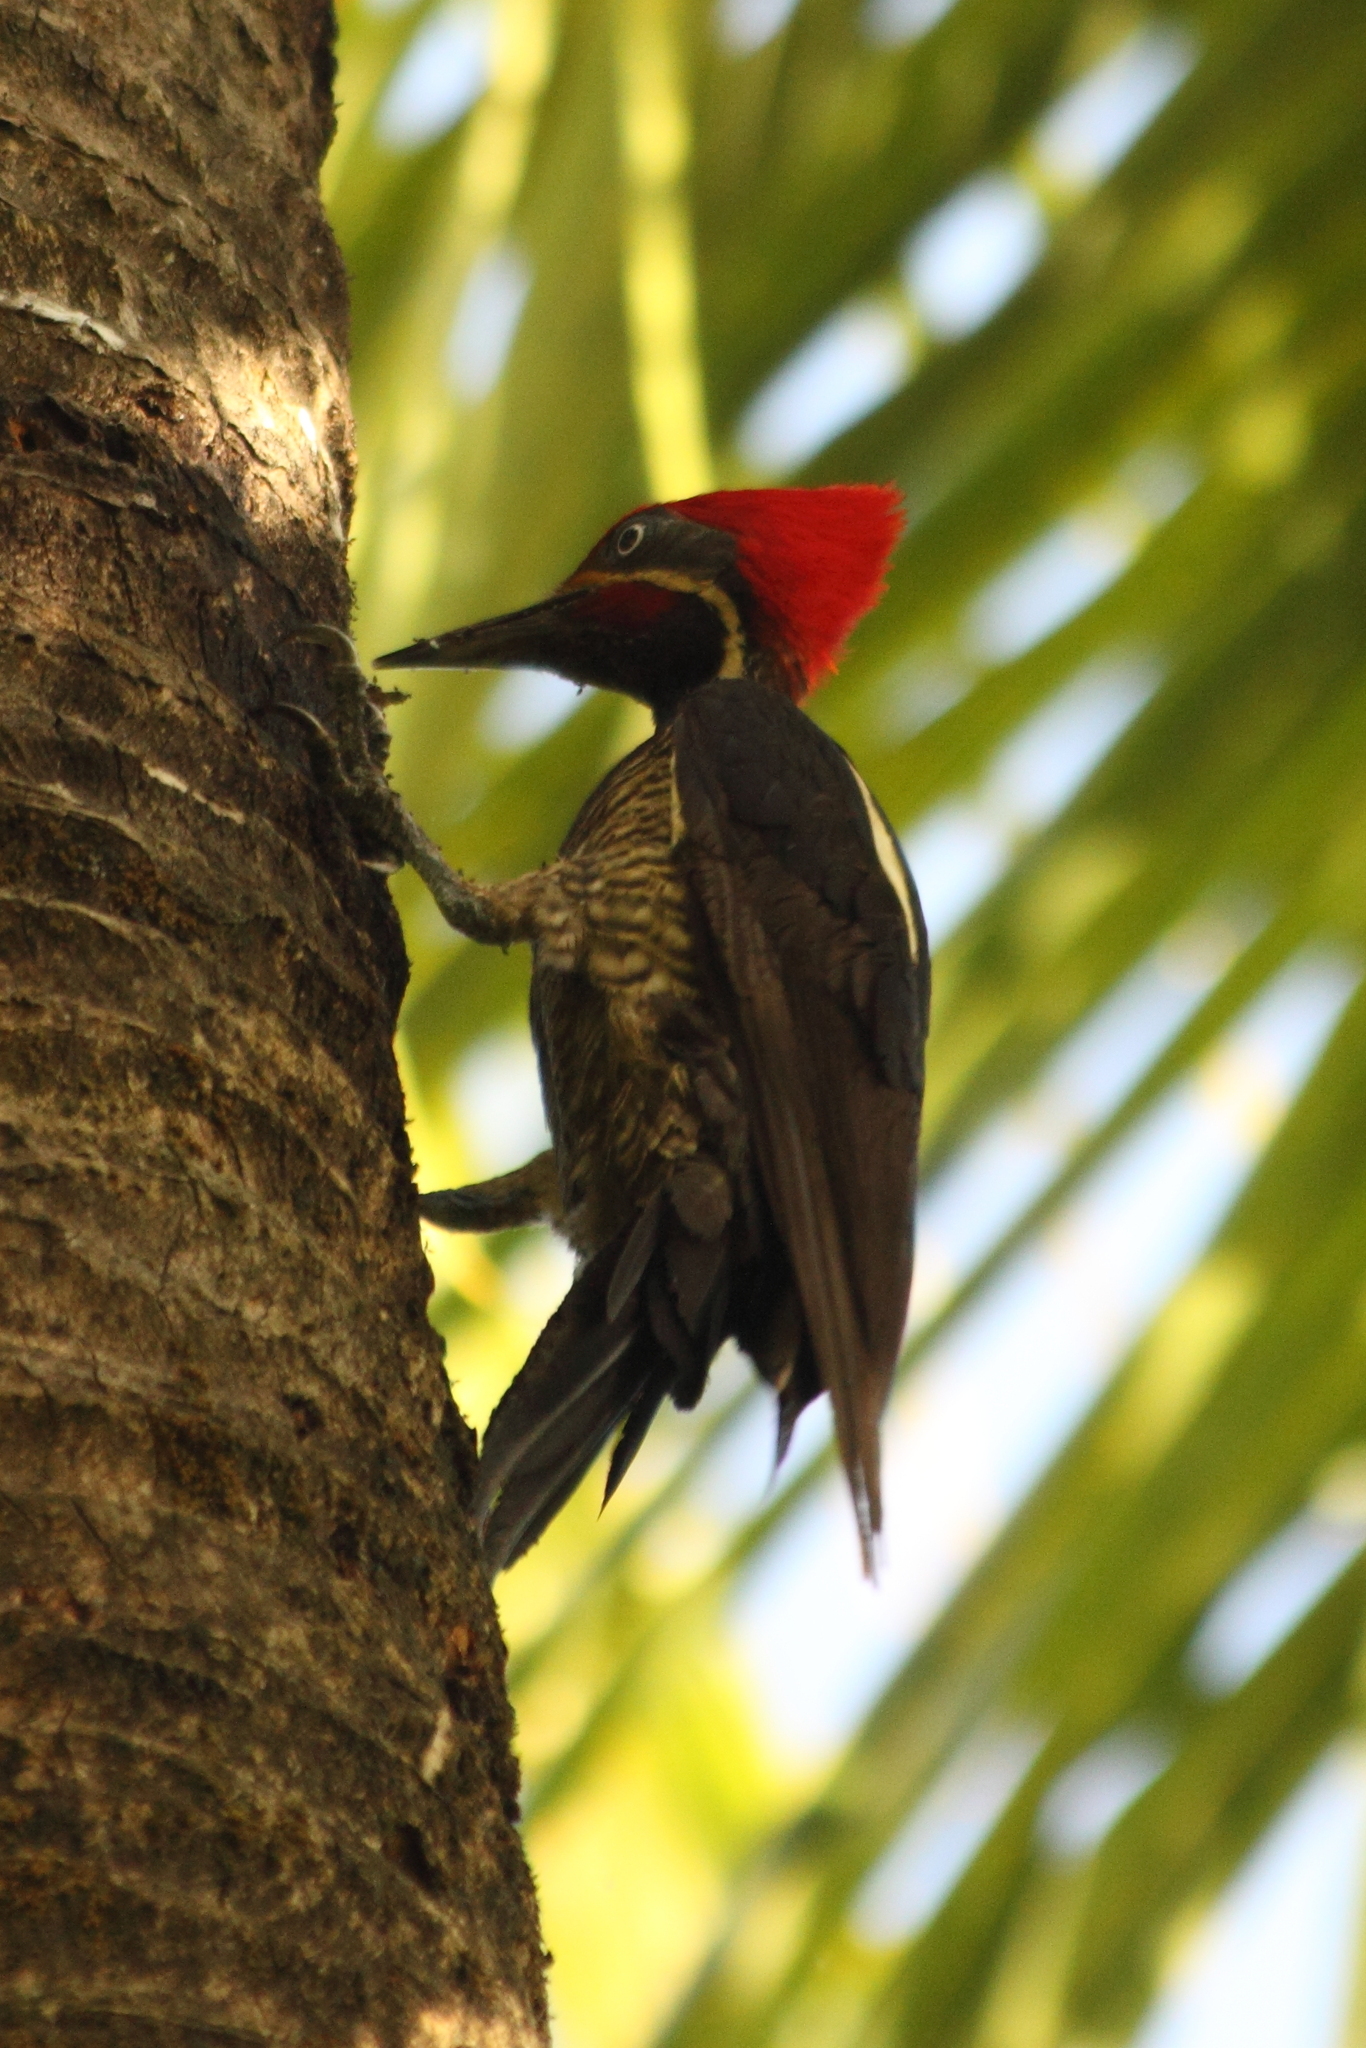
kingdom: Animalia
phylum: Chordata
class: Aves
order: Piciformes
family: Picidae
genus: Dryocopus
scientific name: Dryocopus lineatus
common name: Lineated woodpecker
